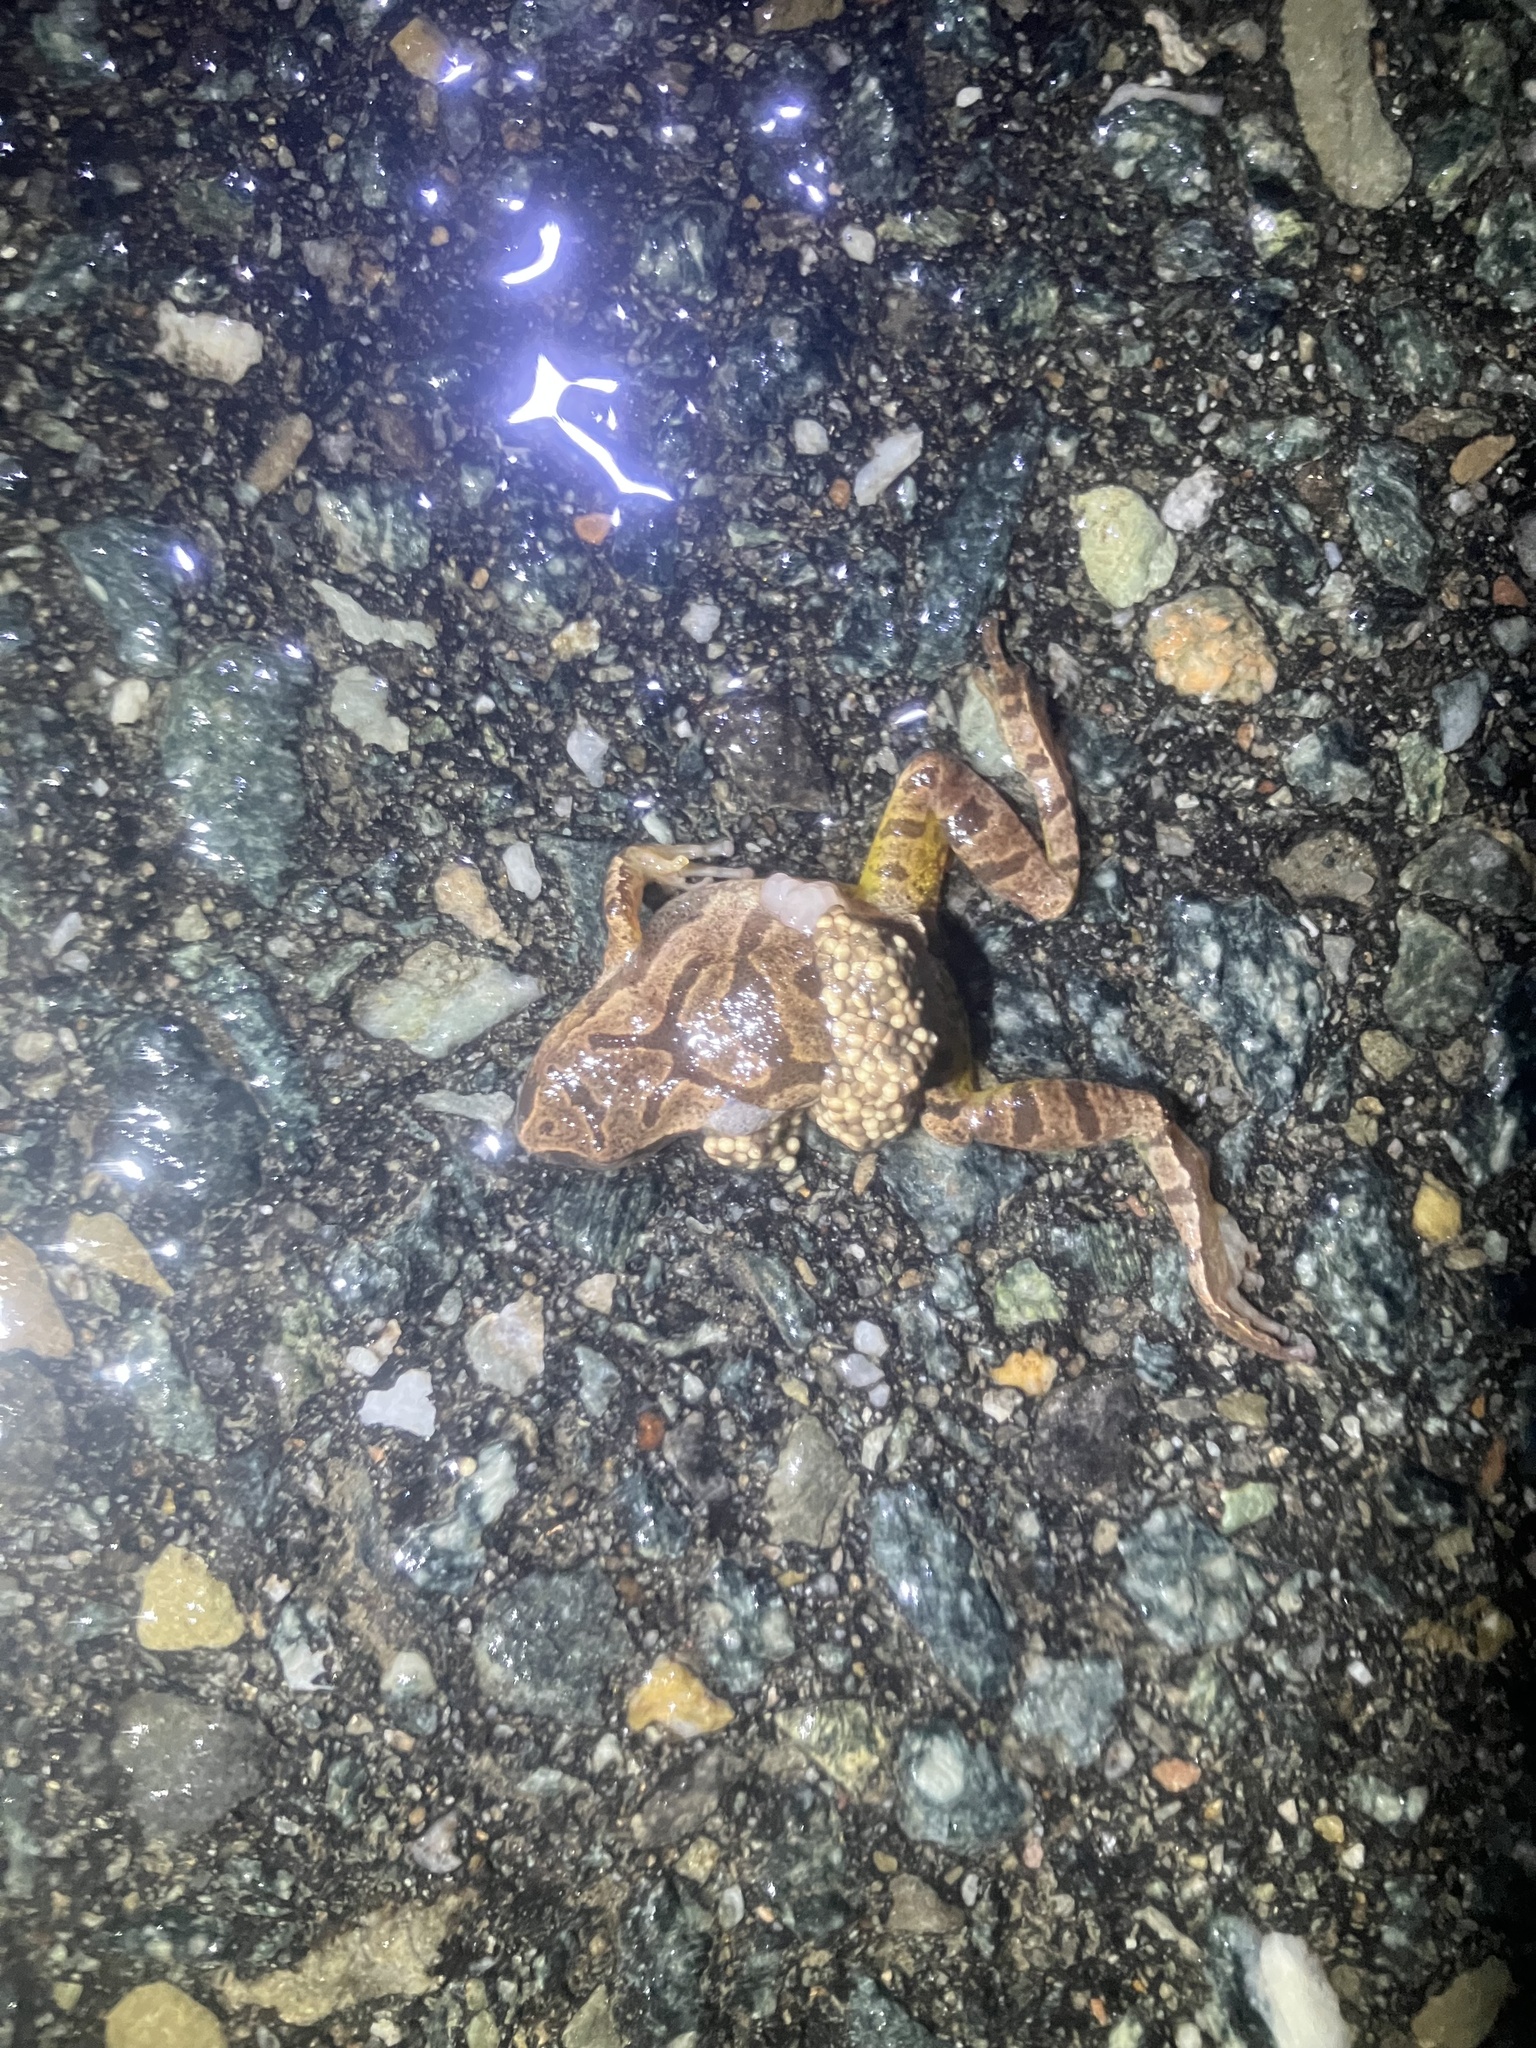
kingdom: Animalia
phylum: Chordata
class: Amphibia
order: Anura
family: Hylidae
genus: Pseudacris
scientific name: Pseudacris crucifer
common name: Spring peeper
